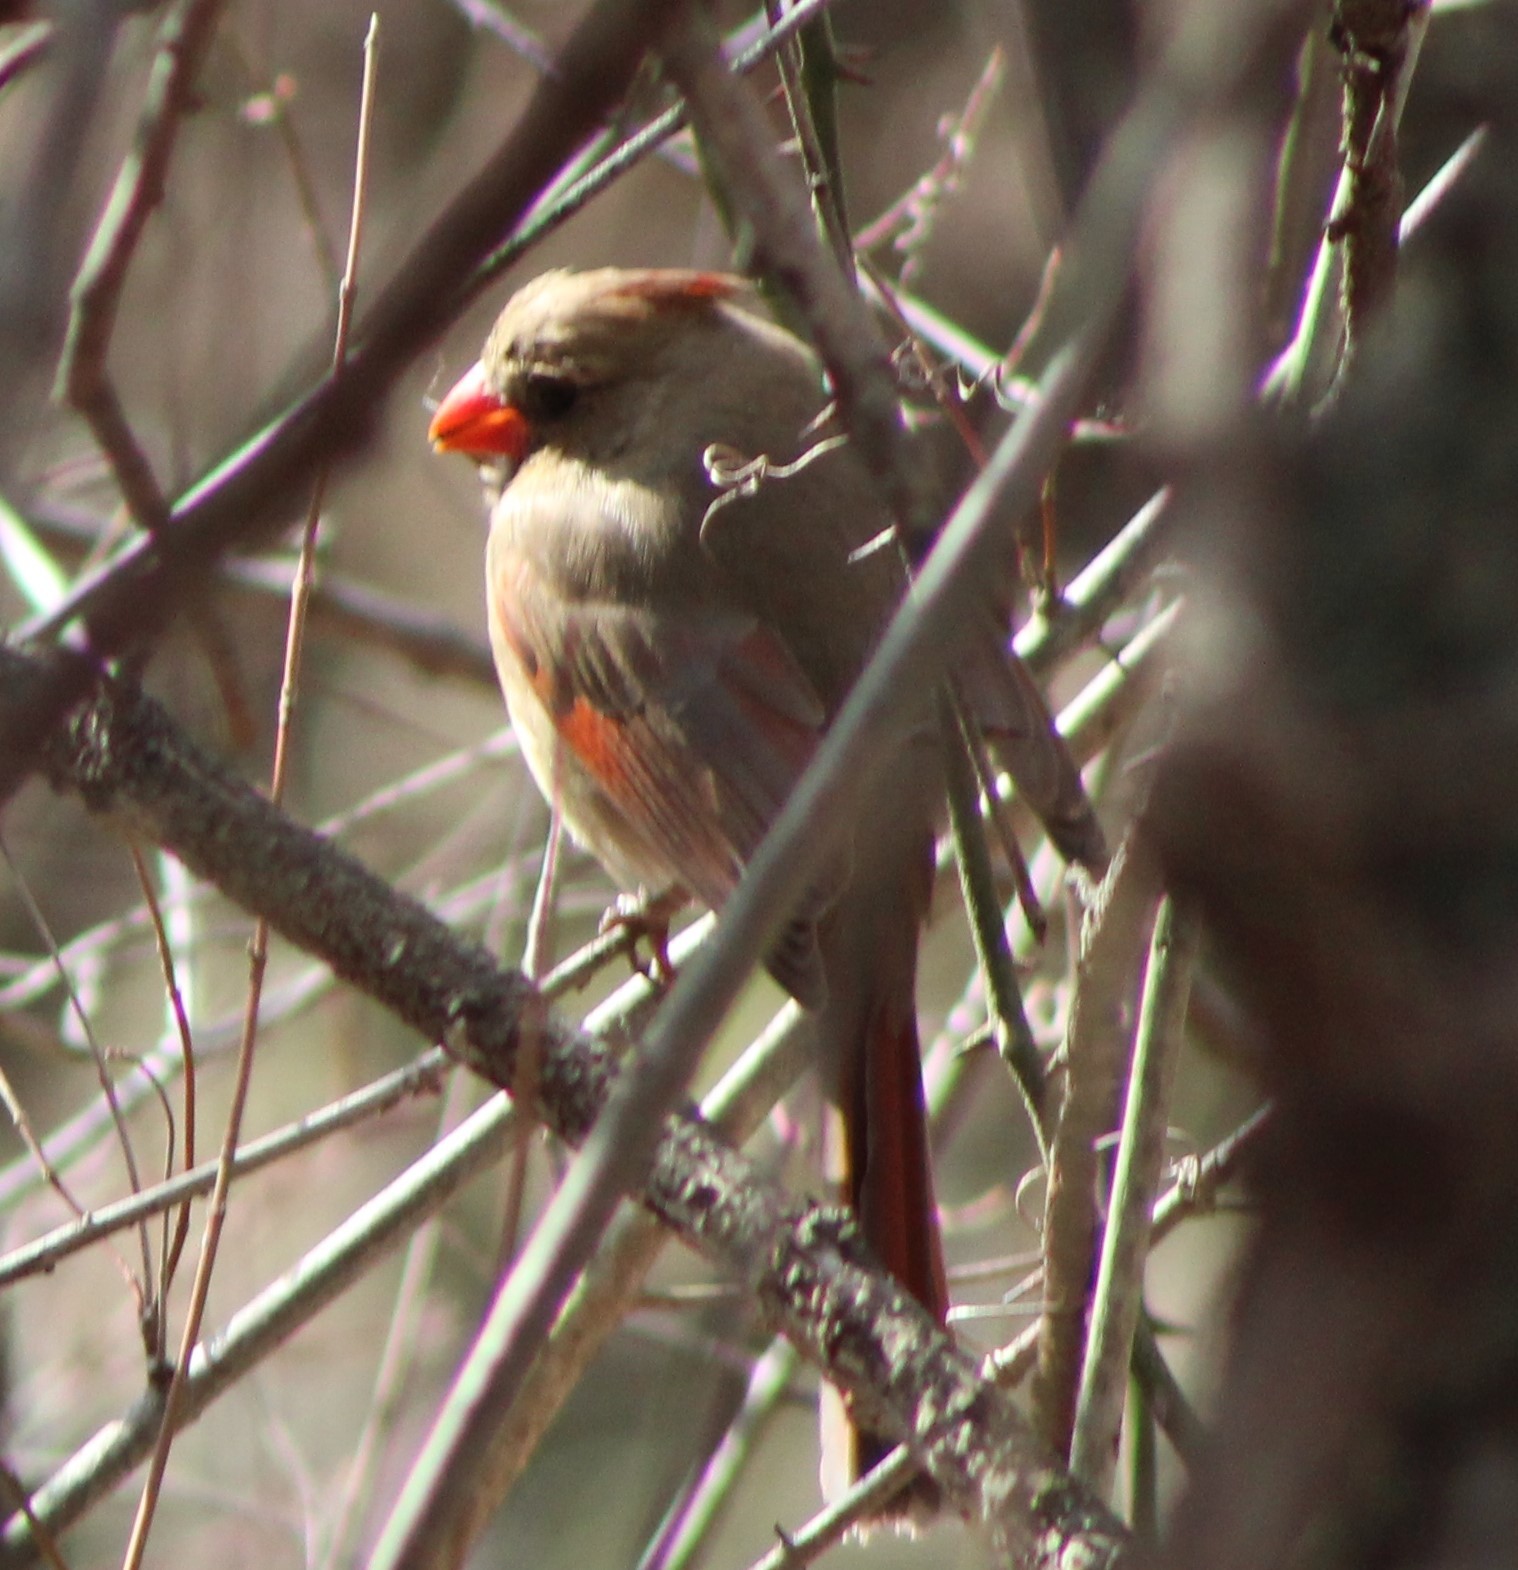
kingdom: Animalia
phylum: Chordata
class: Aves
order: Passeriformes
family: Cardinalidae
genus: Cardinalis
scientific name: Cardinalis cardinalis
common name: Northern cardinal
